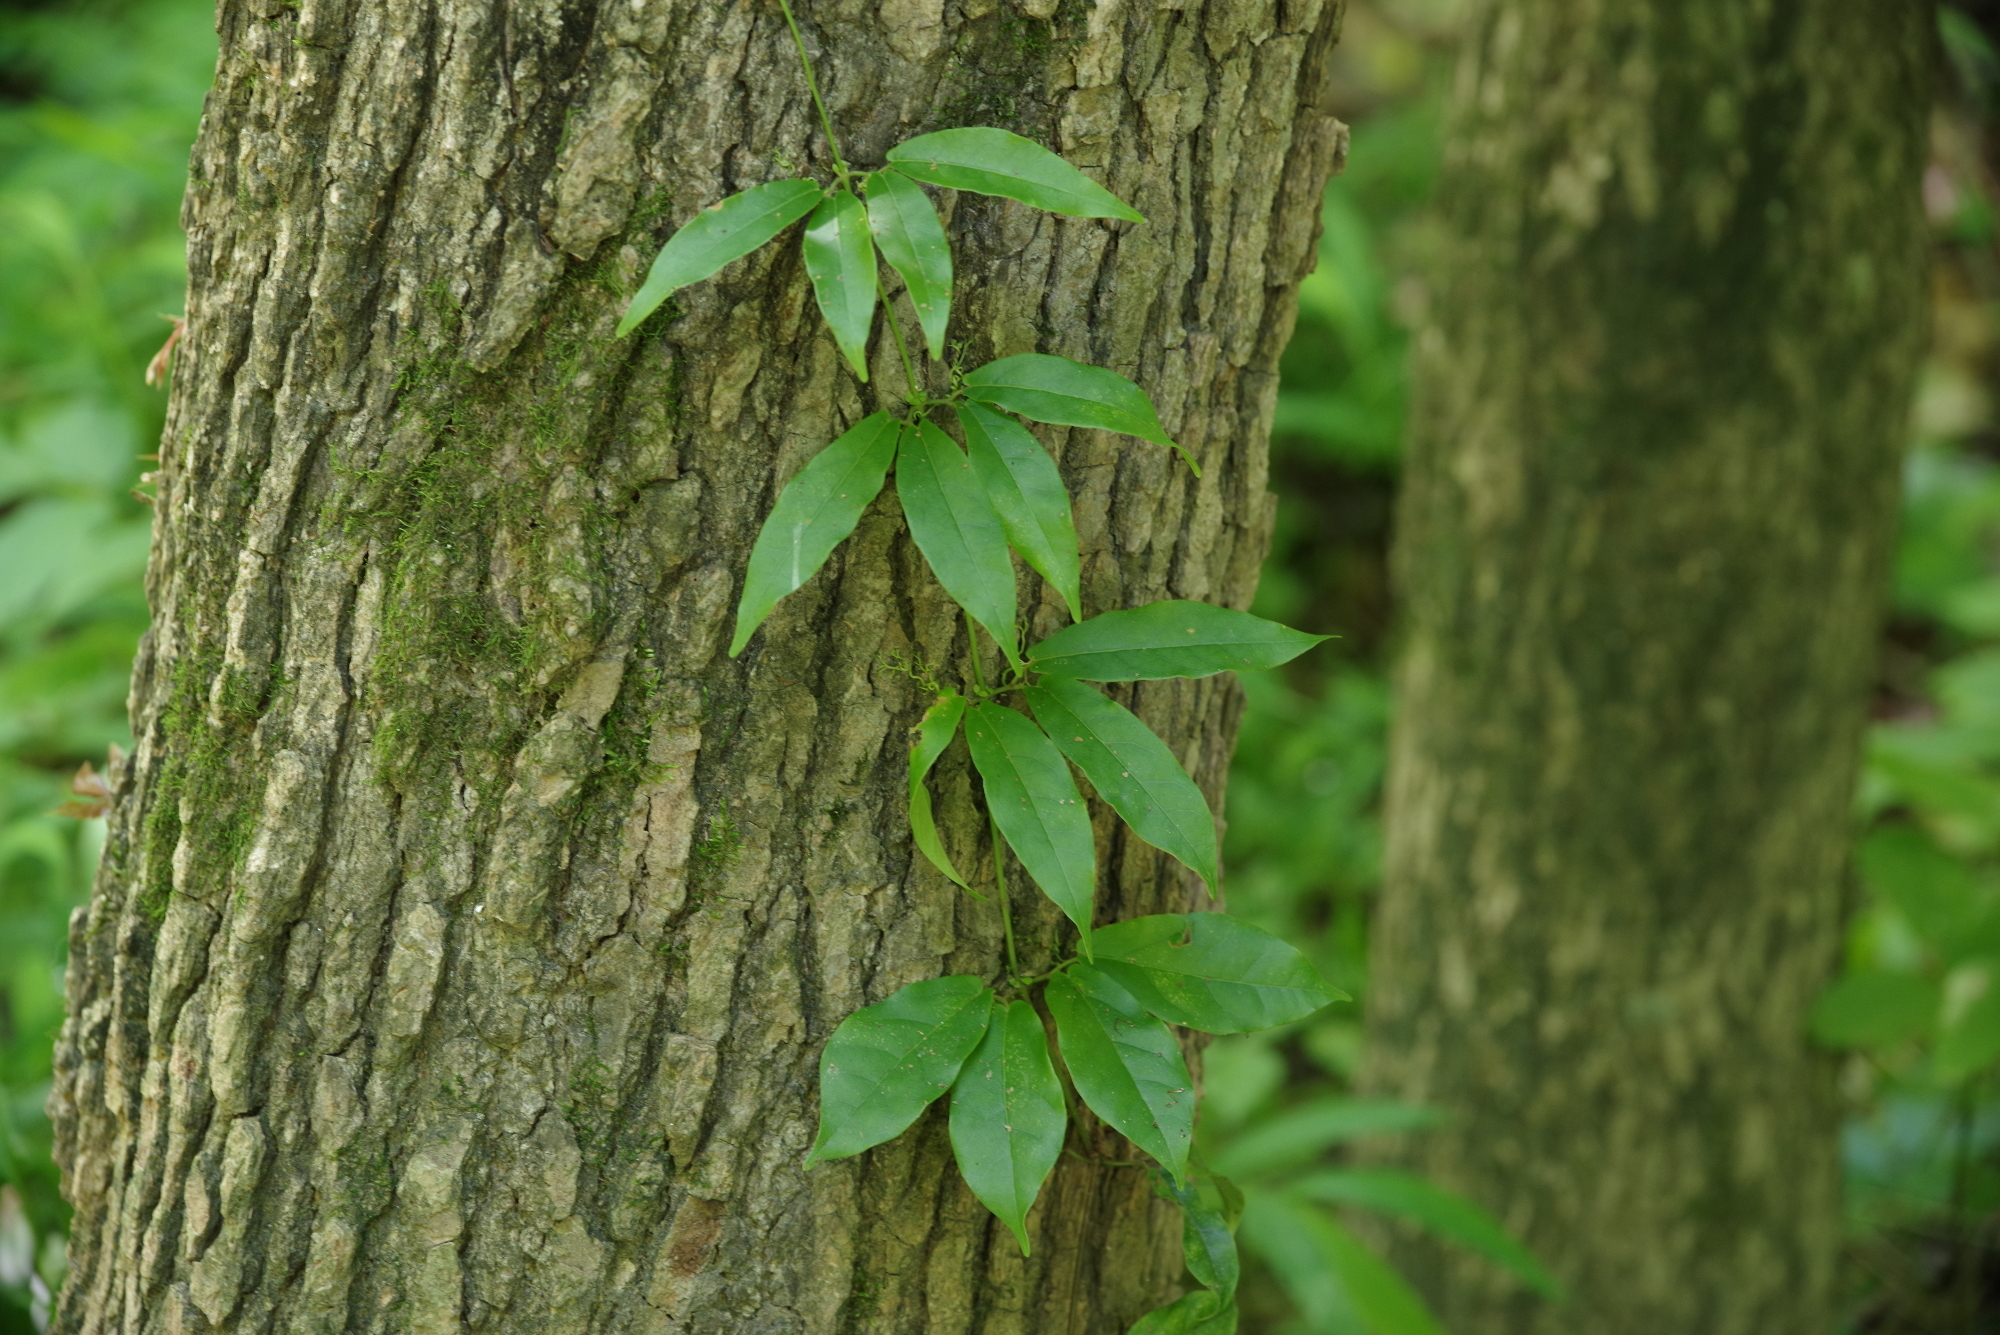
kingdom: Plantae
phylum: Tracheophyta
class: Magnoliopsida
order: Lamiales
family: Bignoniaceae
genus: Bignonia
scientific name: Bignonia capreolata
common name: Crossvine
